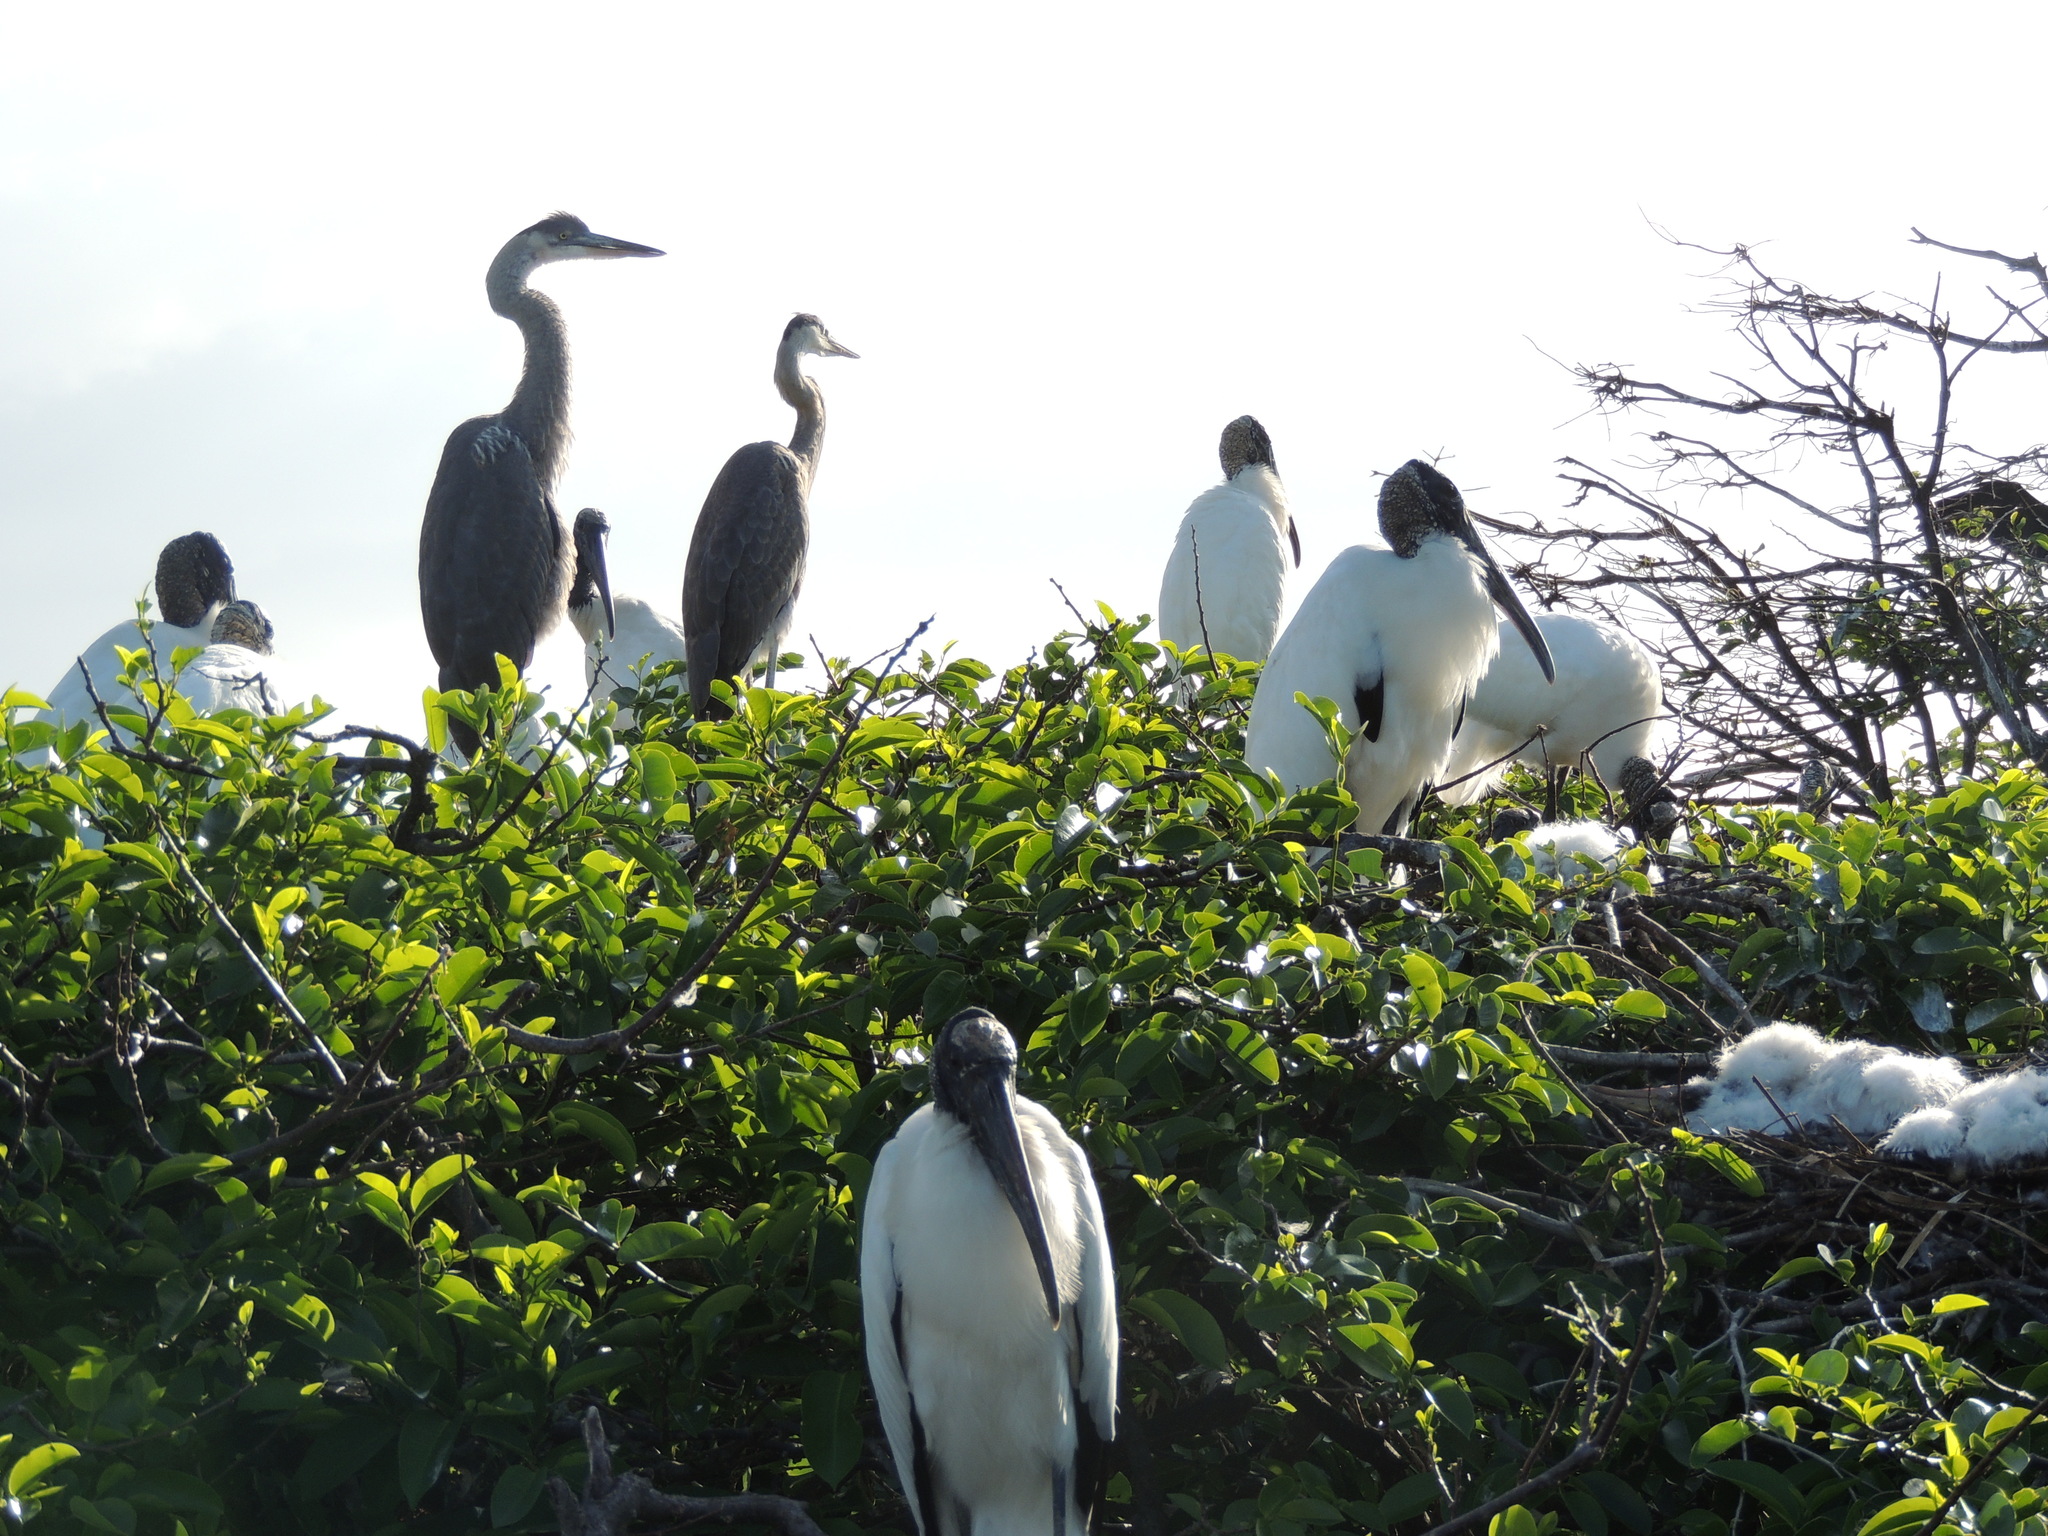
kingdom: Animalia
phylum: Chordata
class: Aves
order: Pelecaniformes
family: Ardeidae
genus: Ardea
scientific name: Ardea herodias
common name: Great blue heron
